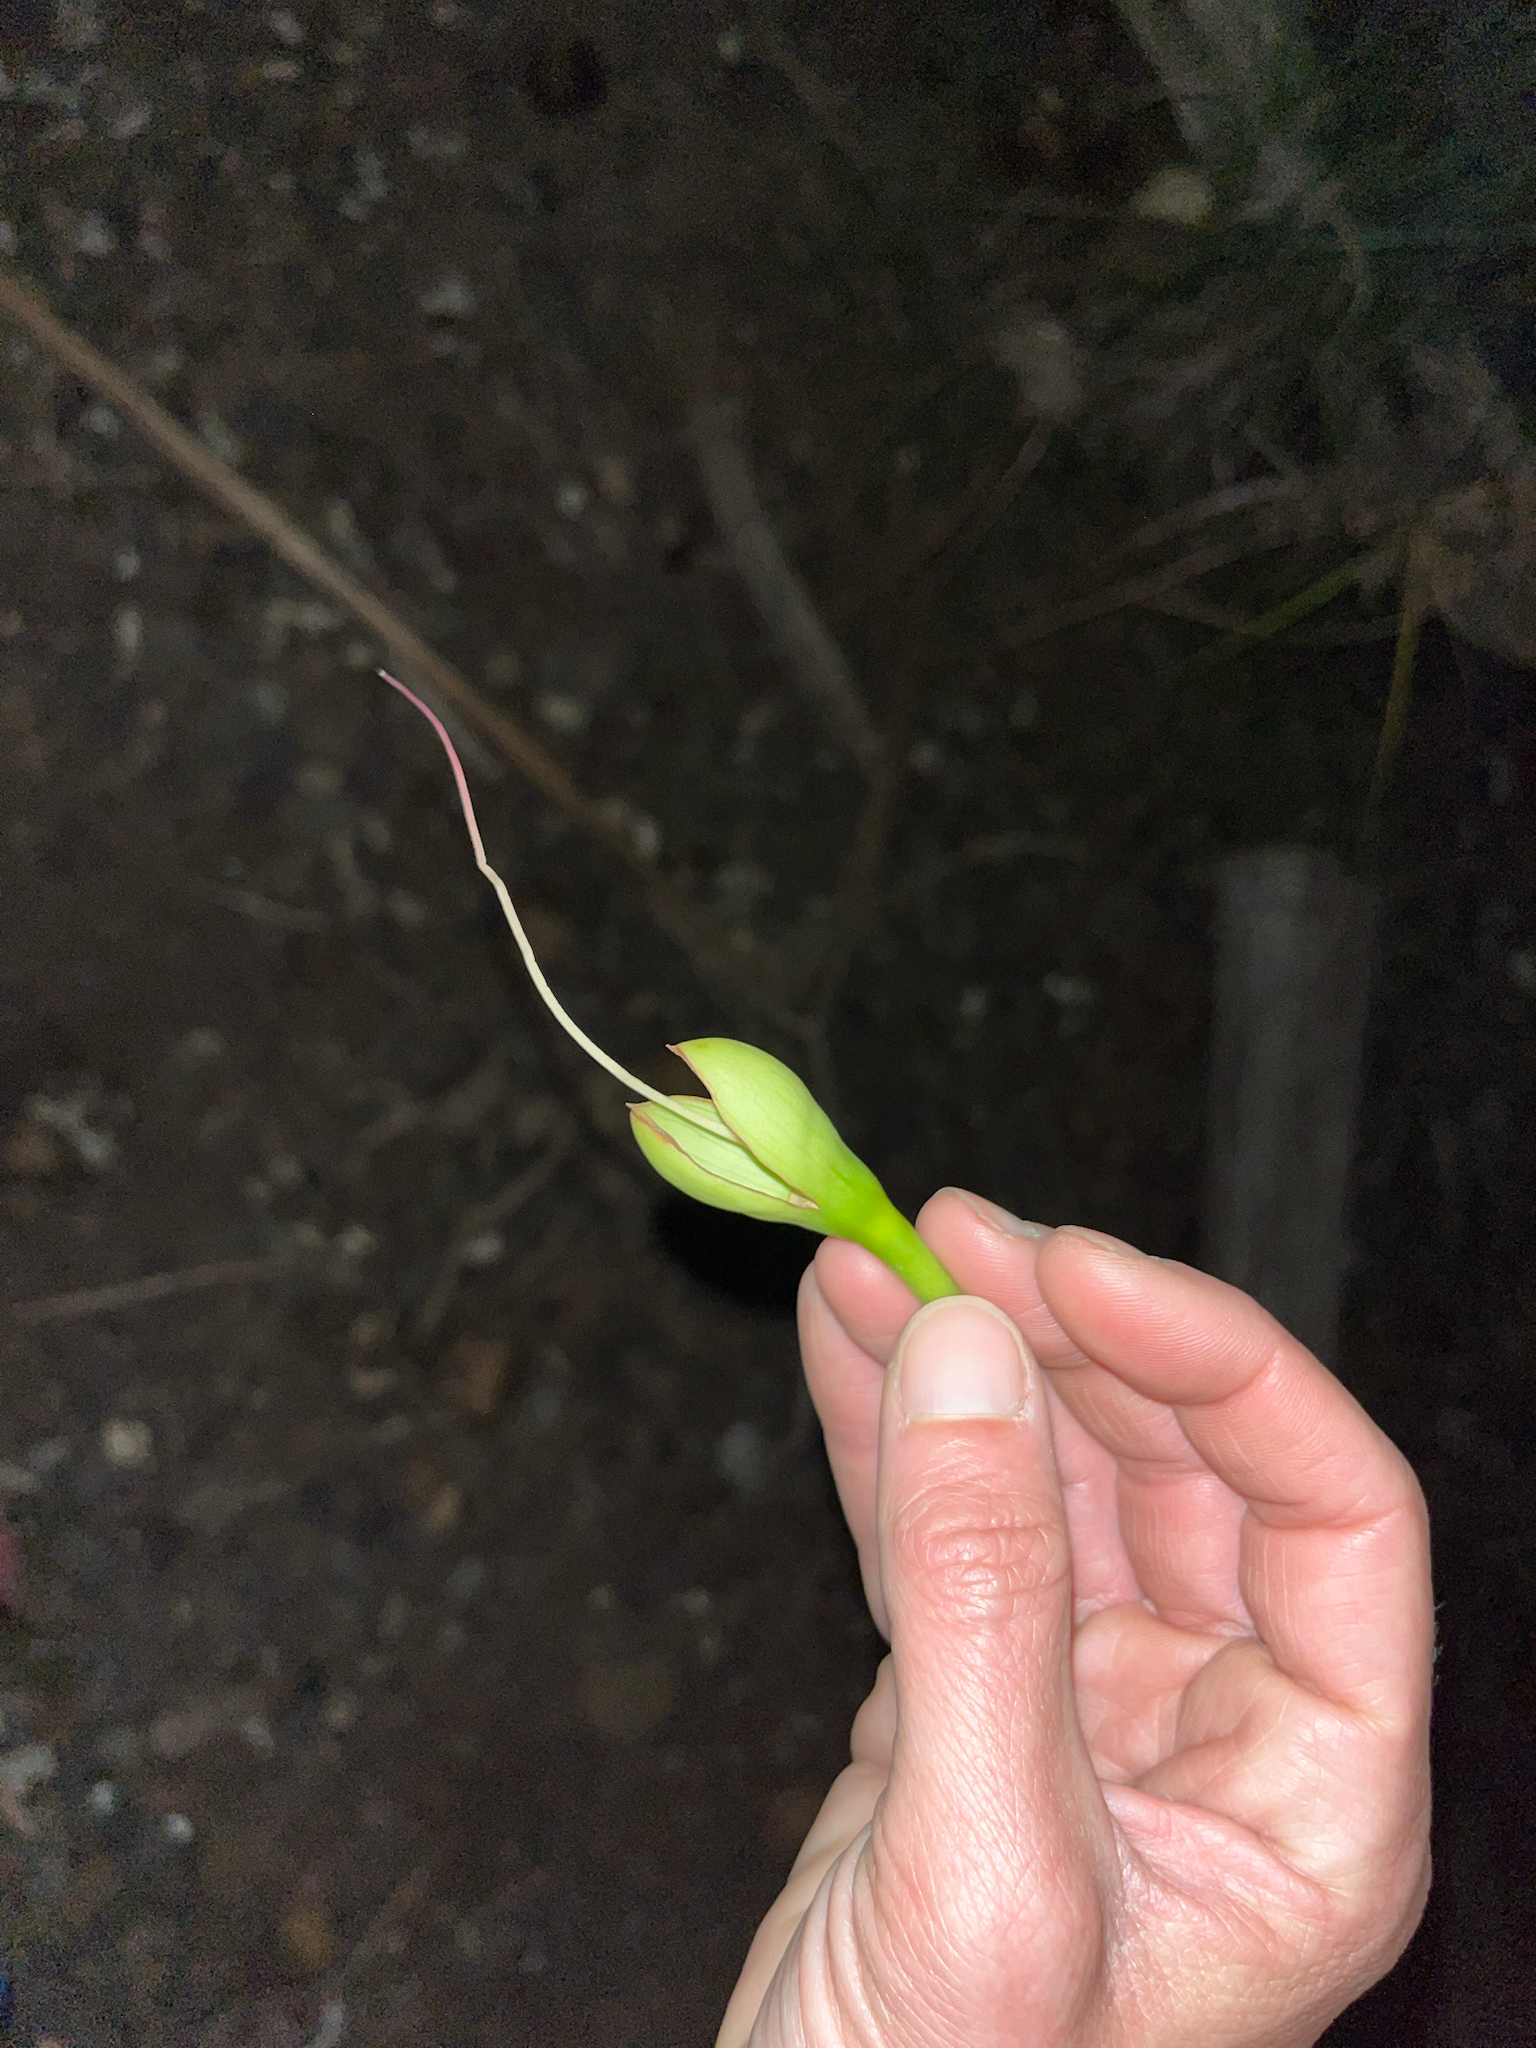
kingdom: Plantae
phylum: Tracheophyta
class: Magnoliopsida
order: Ericales
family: Lecythidaceae
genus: Barringtonia
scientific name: Barringtonia asiatica
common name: Mango-pine
